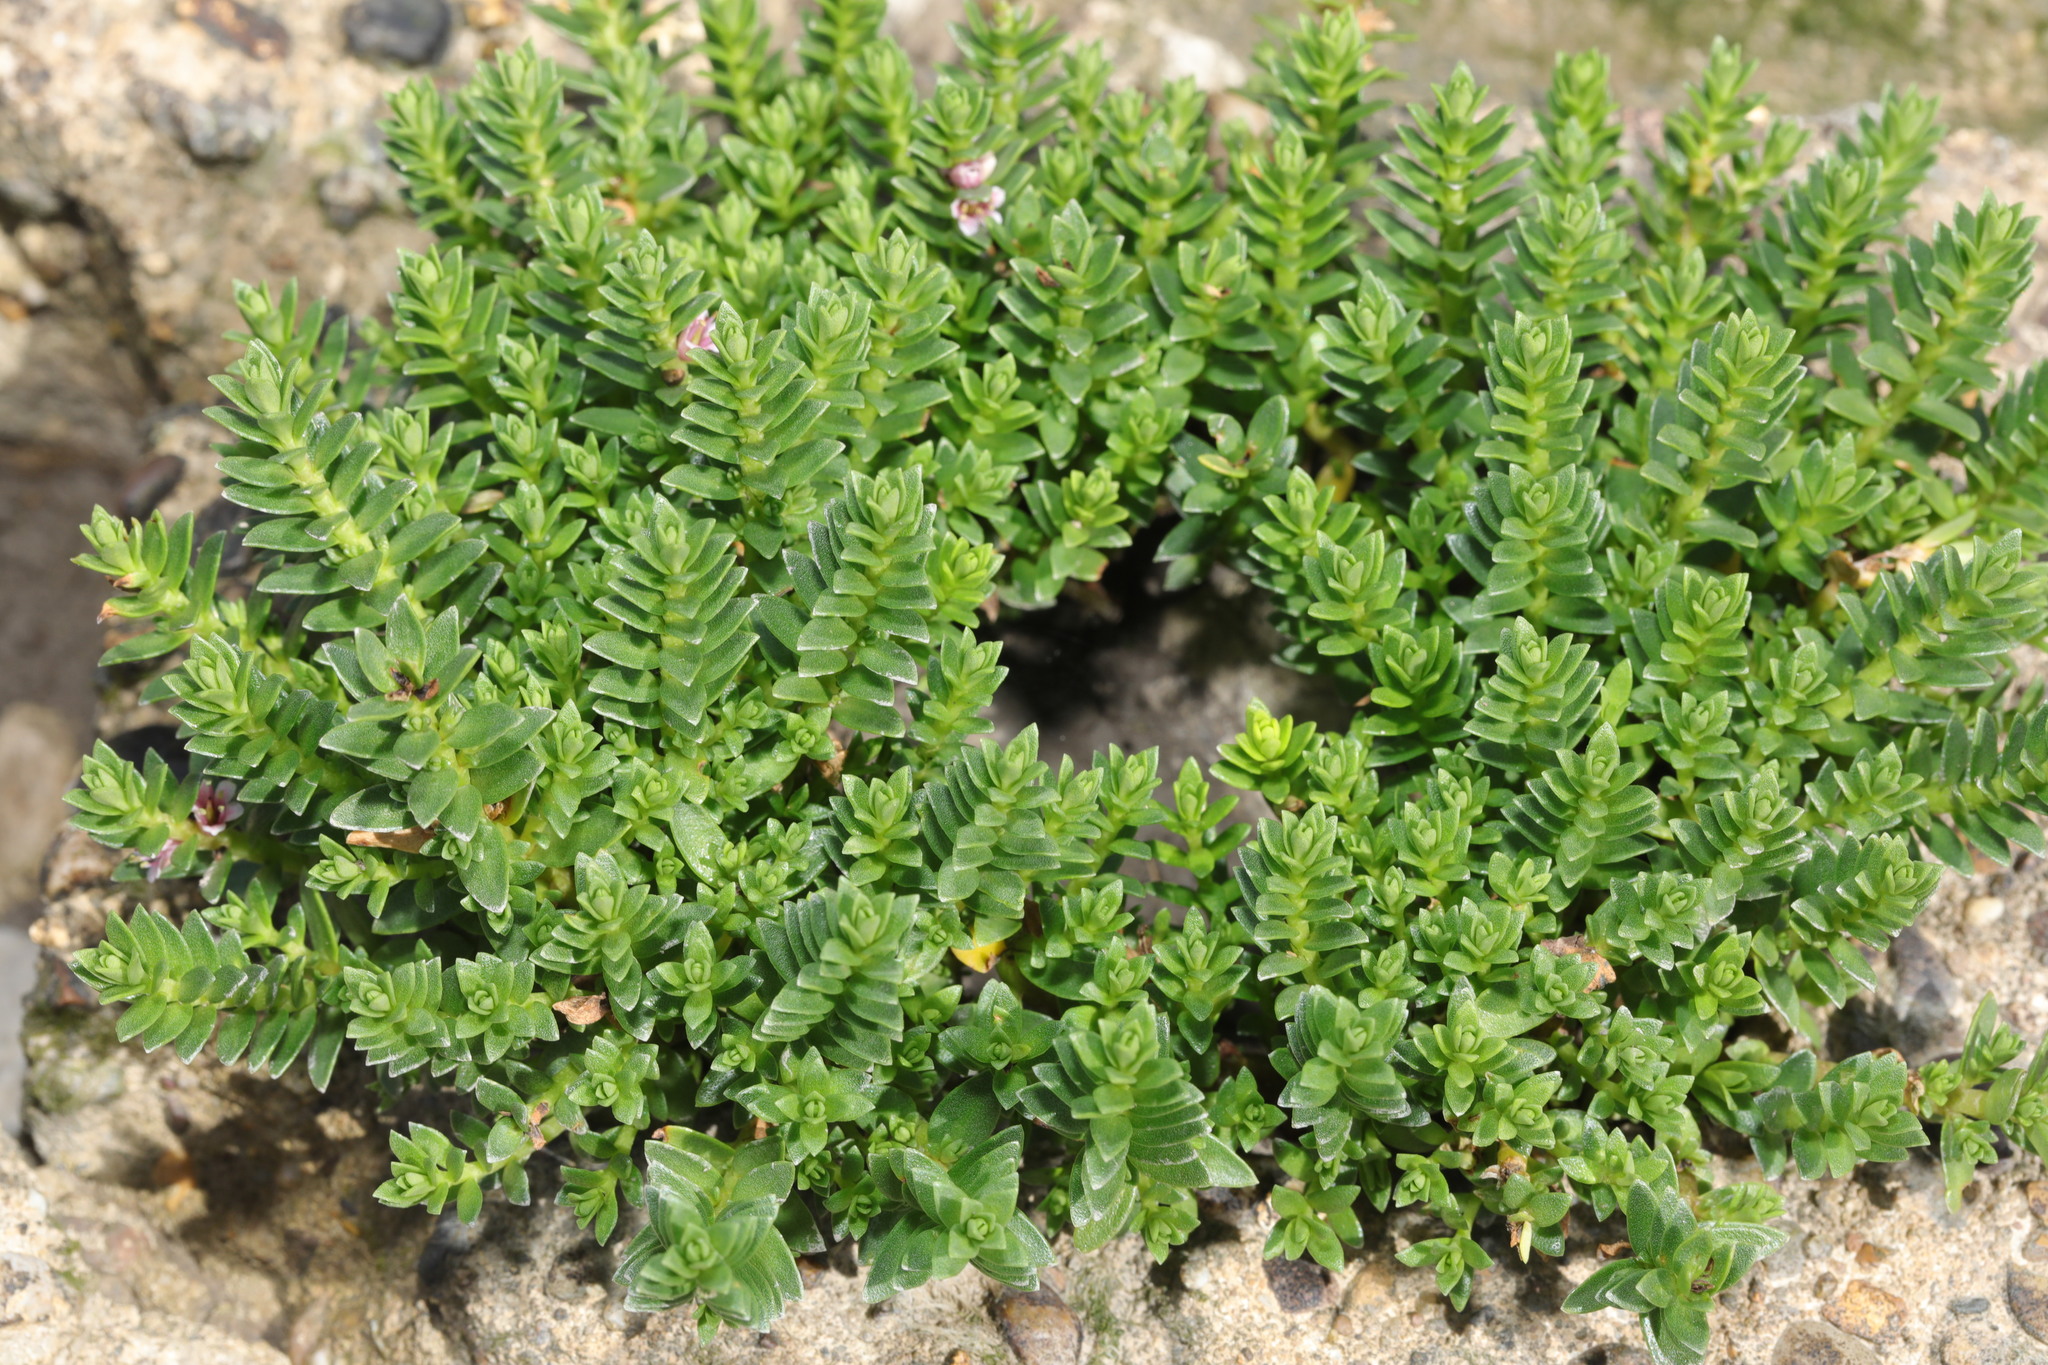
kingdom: Plantae
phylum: Tracheophyta
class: Magnoliopsida
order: Ericales
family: Primulaceae
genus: Lysimachia
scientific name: Lysimachia maritima
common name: Sea milkwort
